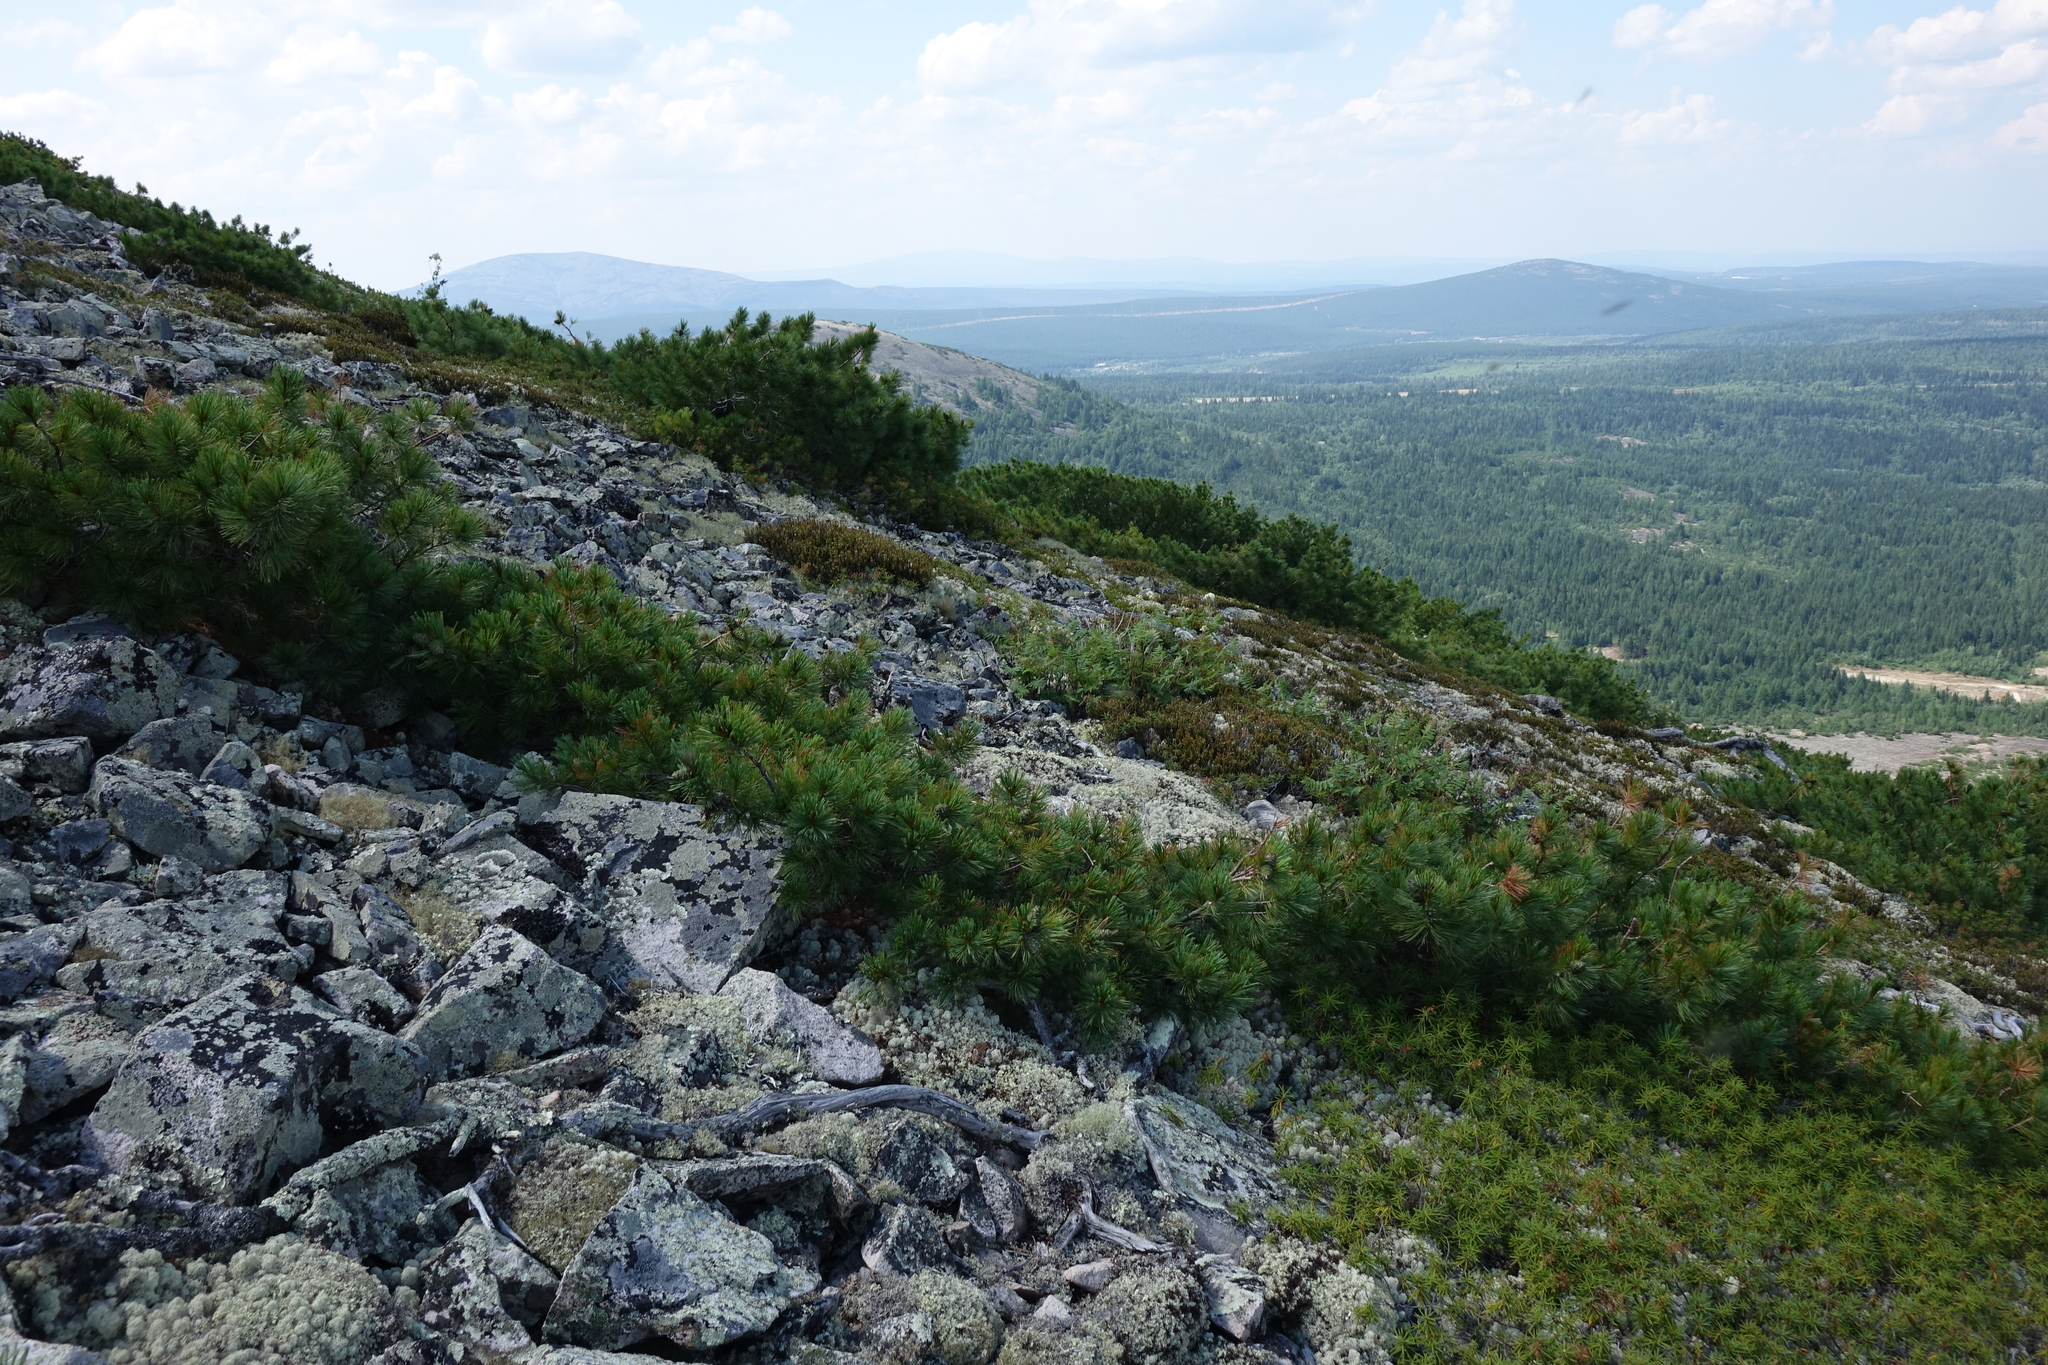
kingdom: Plantae
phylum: Tracheophyta
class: Pinopsida
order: Pinales
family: Pinaceae
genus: Pinus
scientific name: Pinus pumila
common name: Dwarf siberian pine
